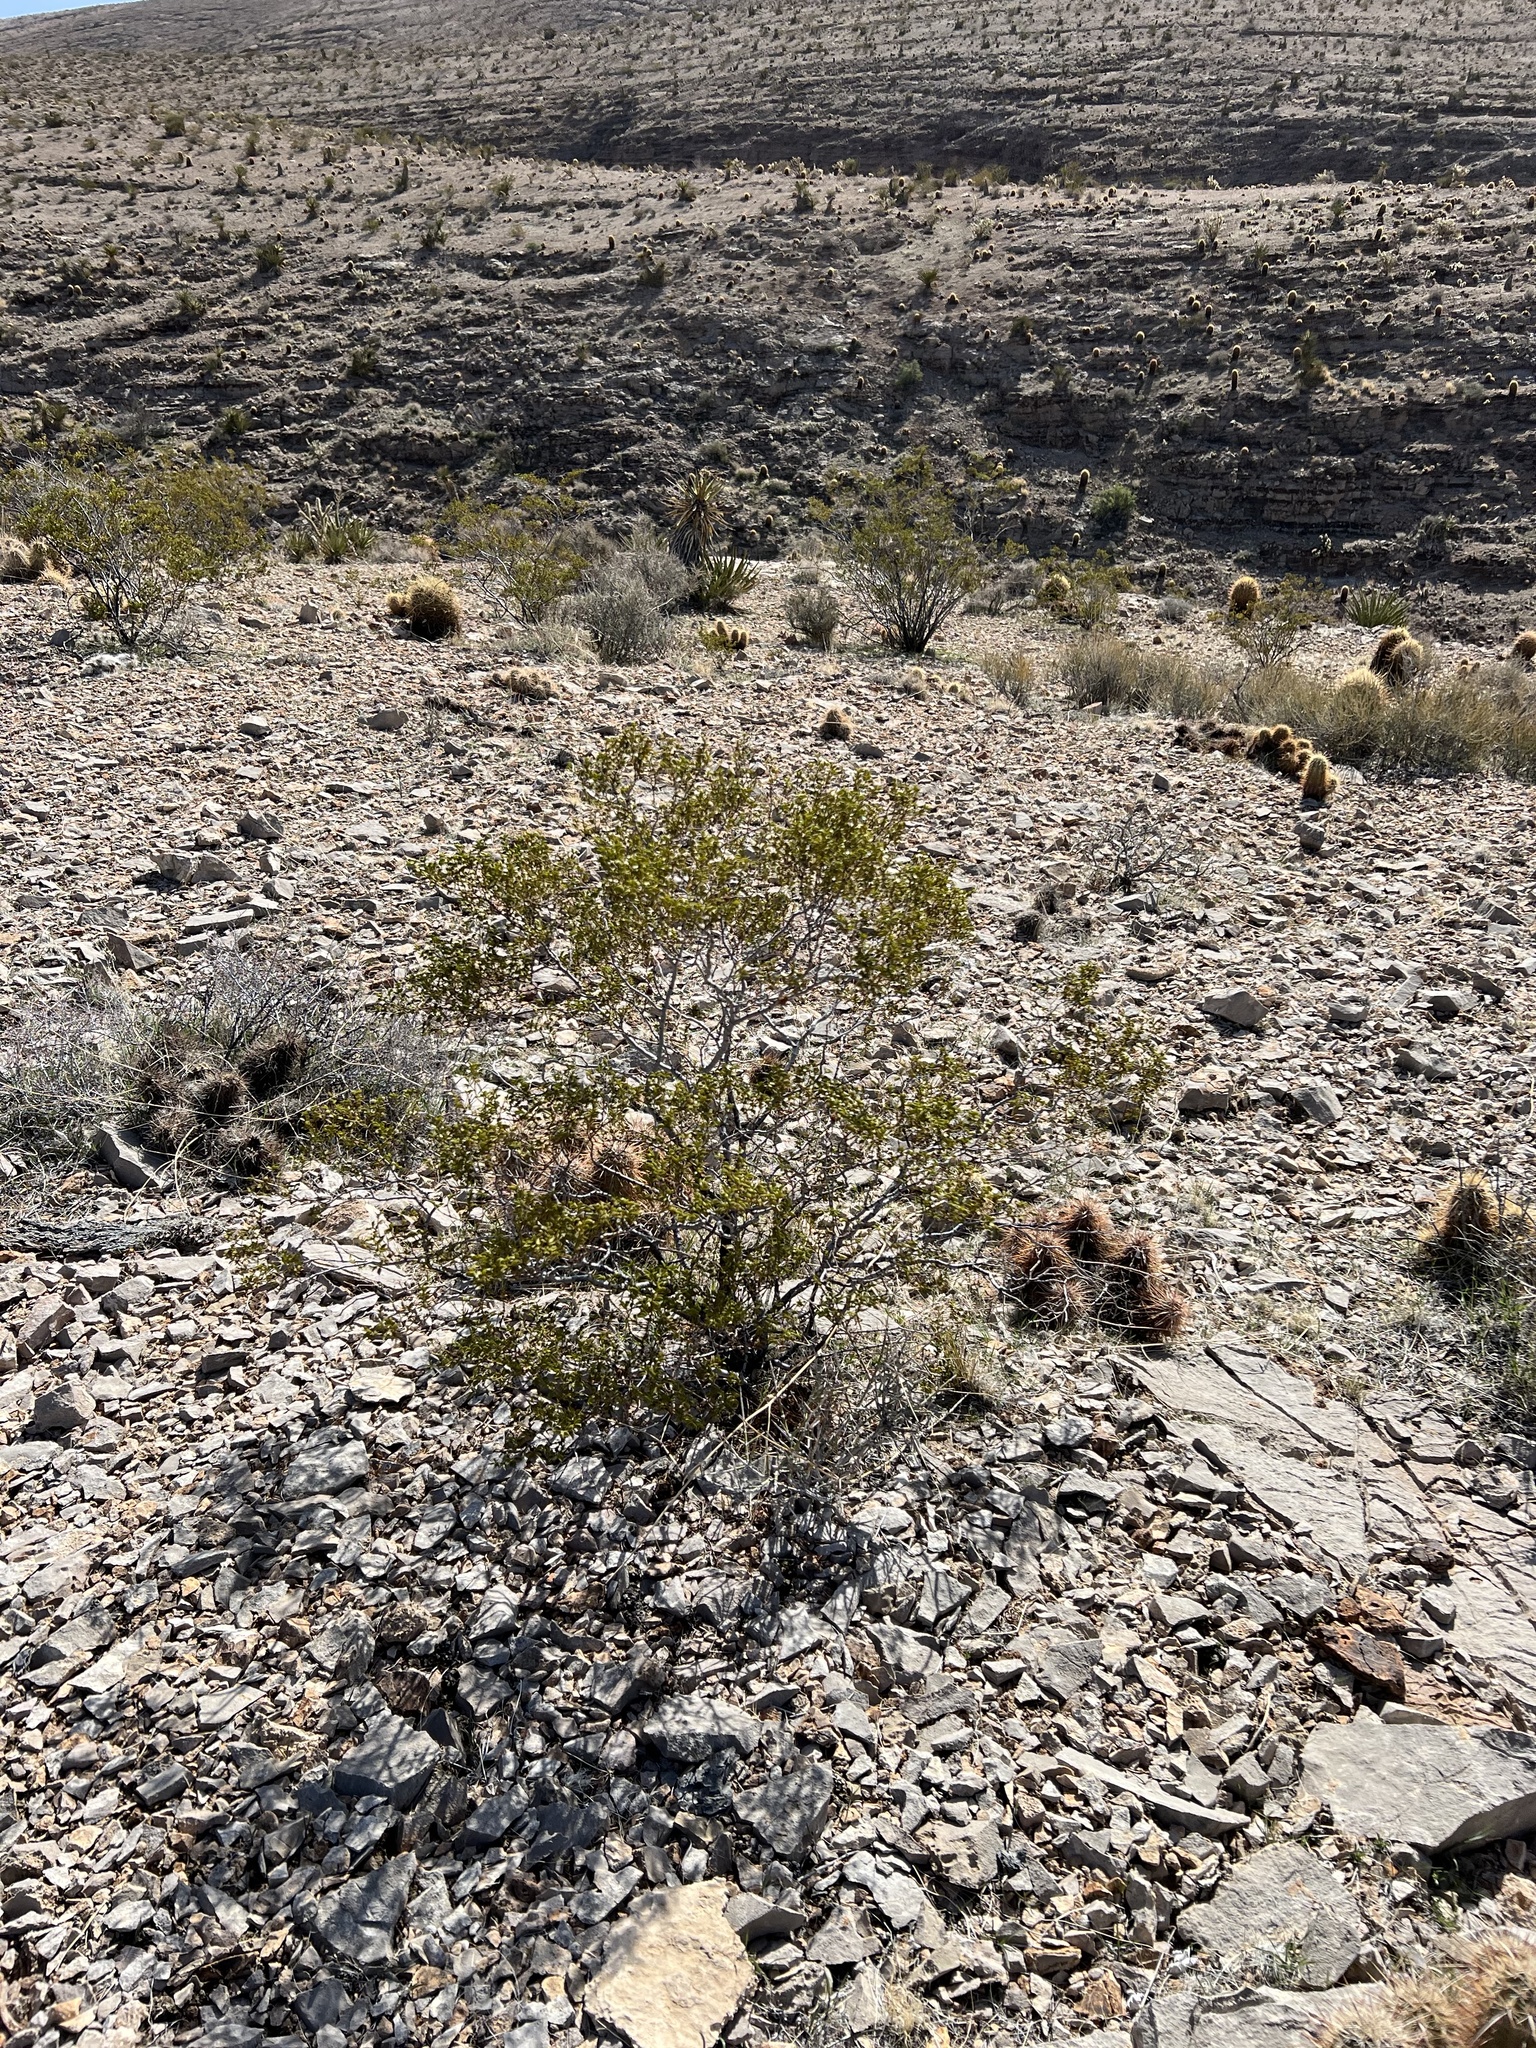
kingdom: Plantae
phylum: Tracheophyta
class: Magnoliopsida
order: Zygophyllales
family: Zygophyllaceae
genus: Larrea
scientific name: Larrea tridentata
